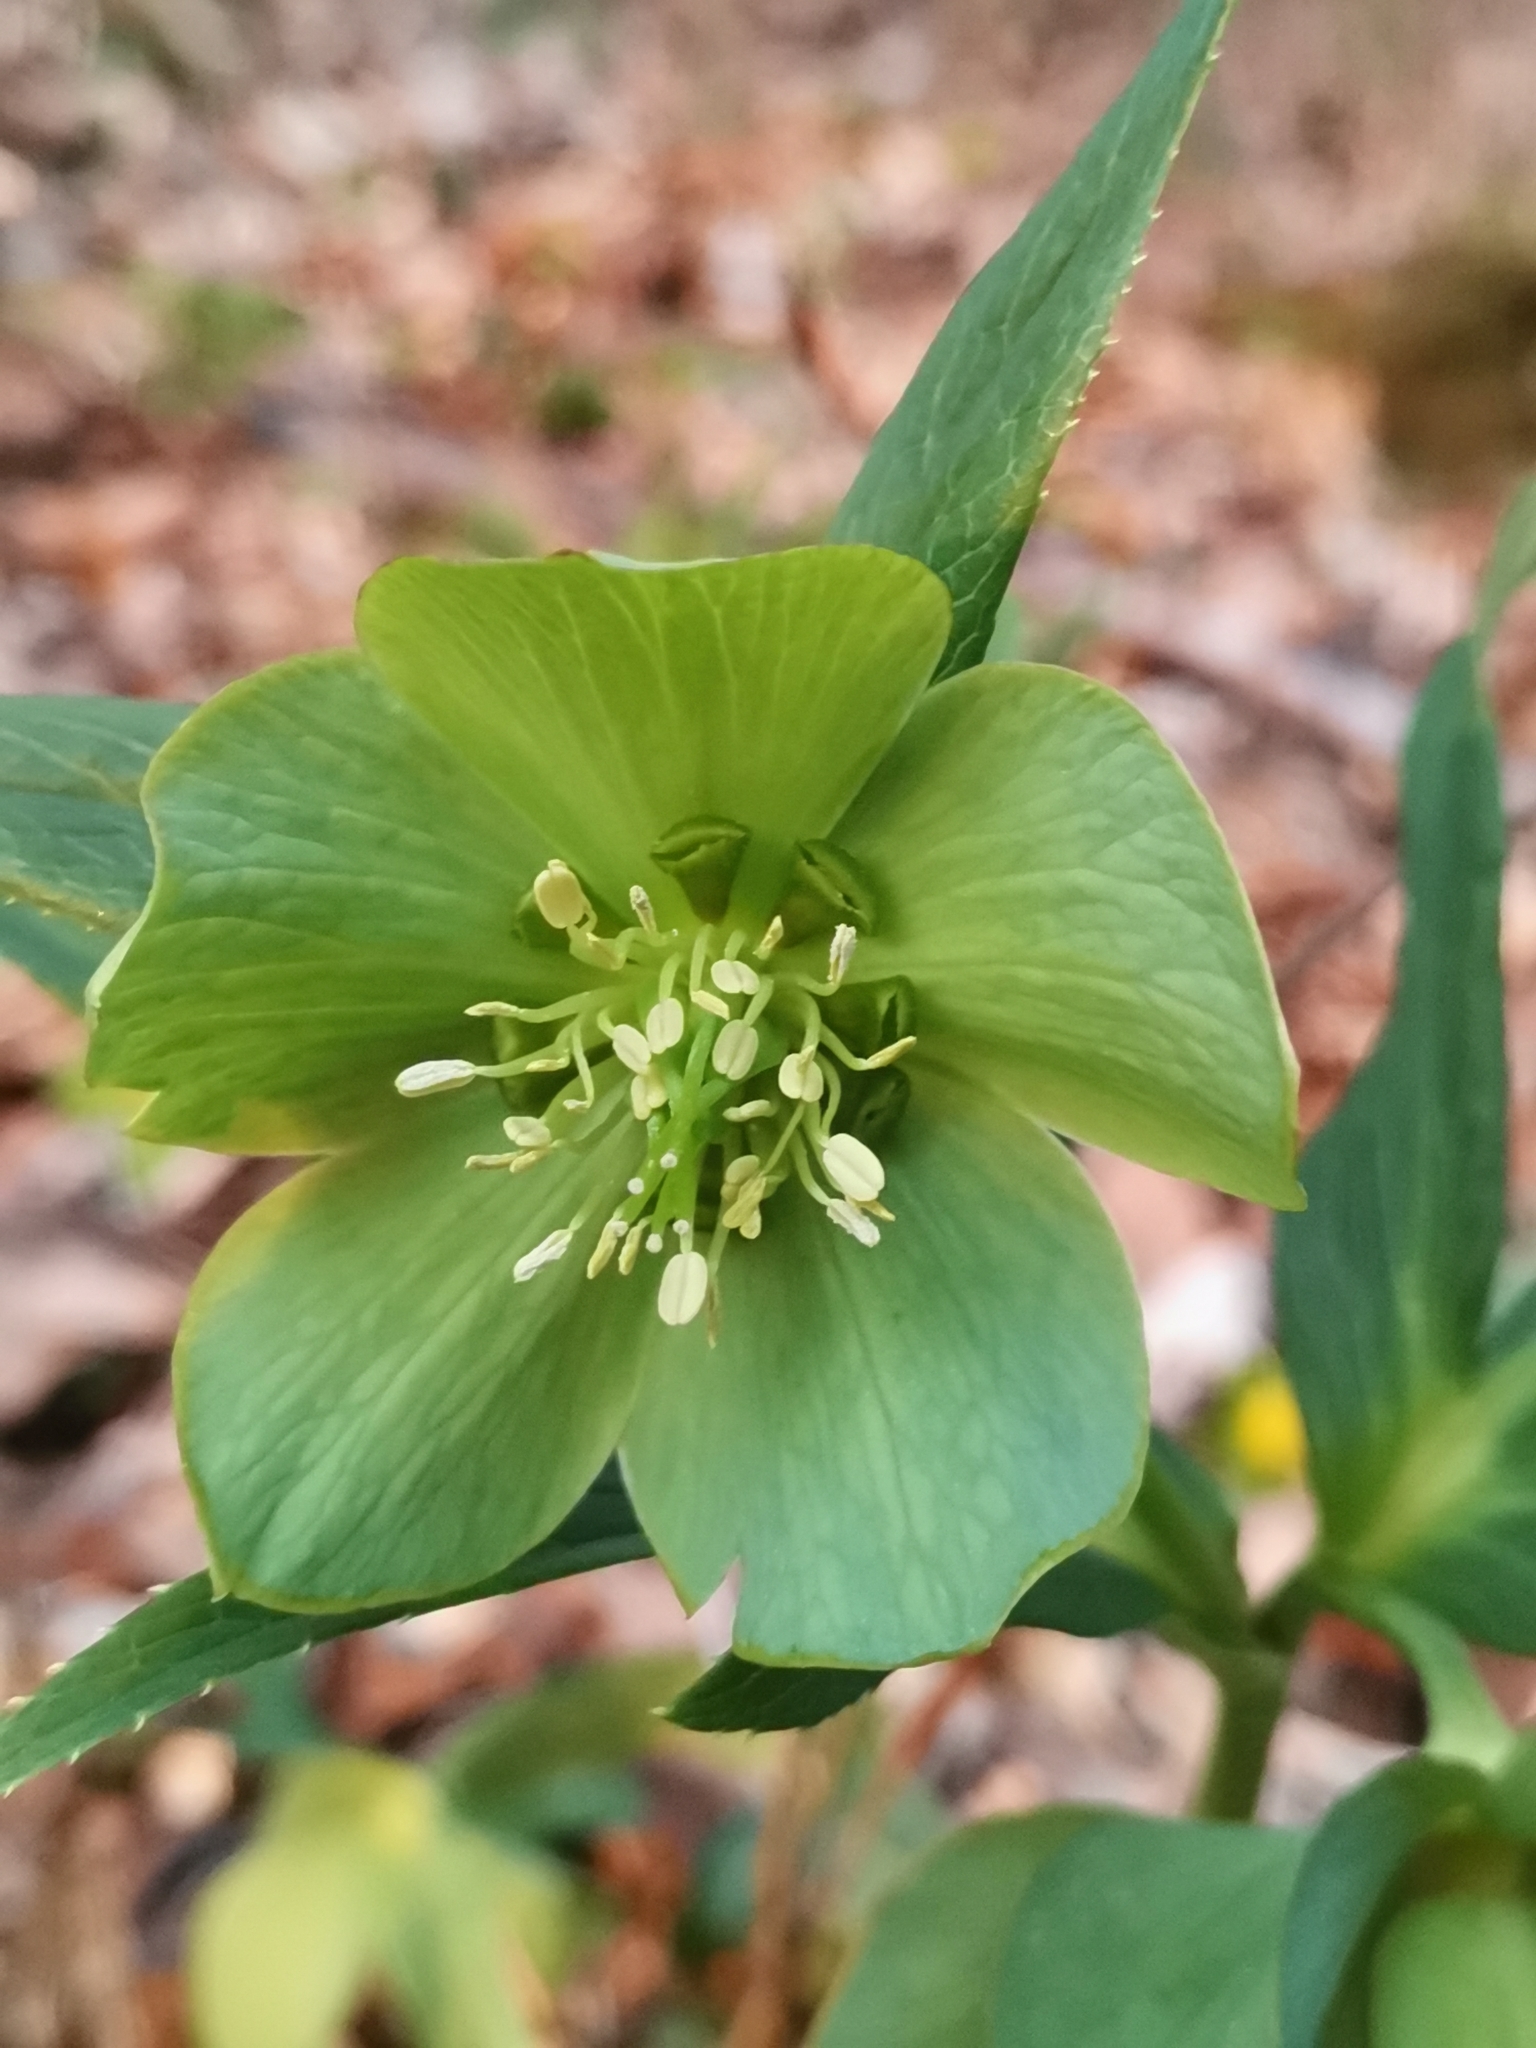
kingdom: Plantae
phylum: Tracheophyta
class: Magnoliopsida
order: Ranunculales
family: Ranunculaceae
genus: Helleborus
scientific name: Helleborus odorus
